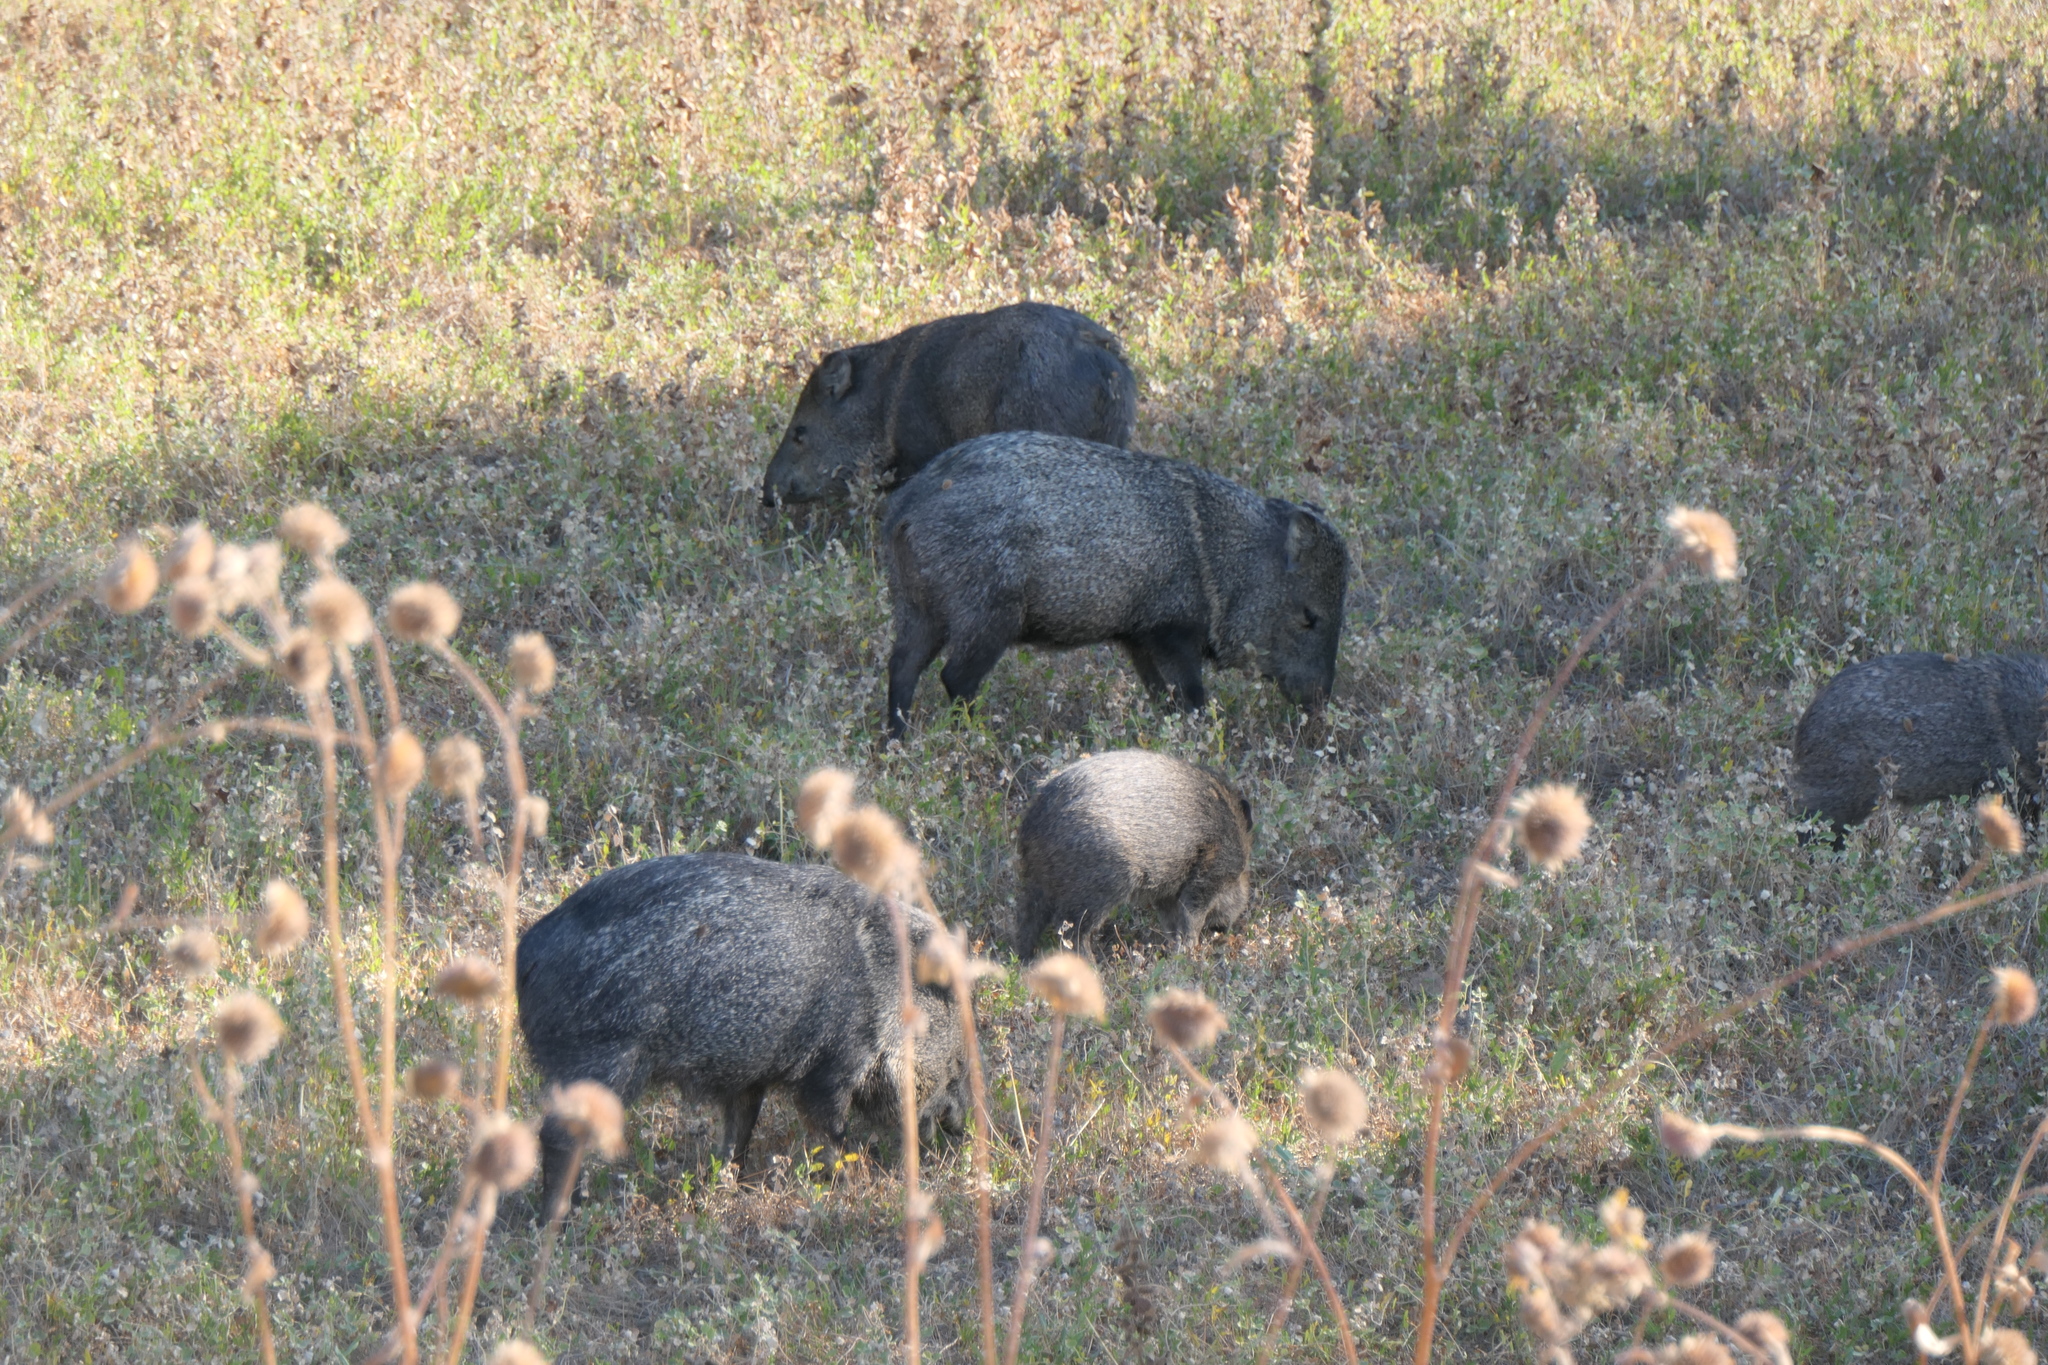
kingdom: Animalia
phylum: Chordata
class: Mammalia
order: Artiodactyla
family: Tayassuidae
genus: Pecari
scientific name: Pecari tajacu
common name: Collared peccary
